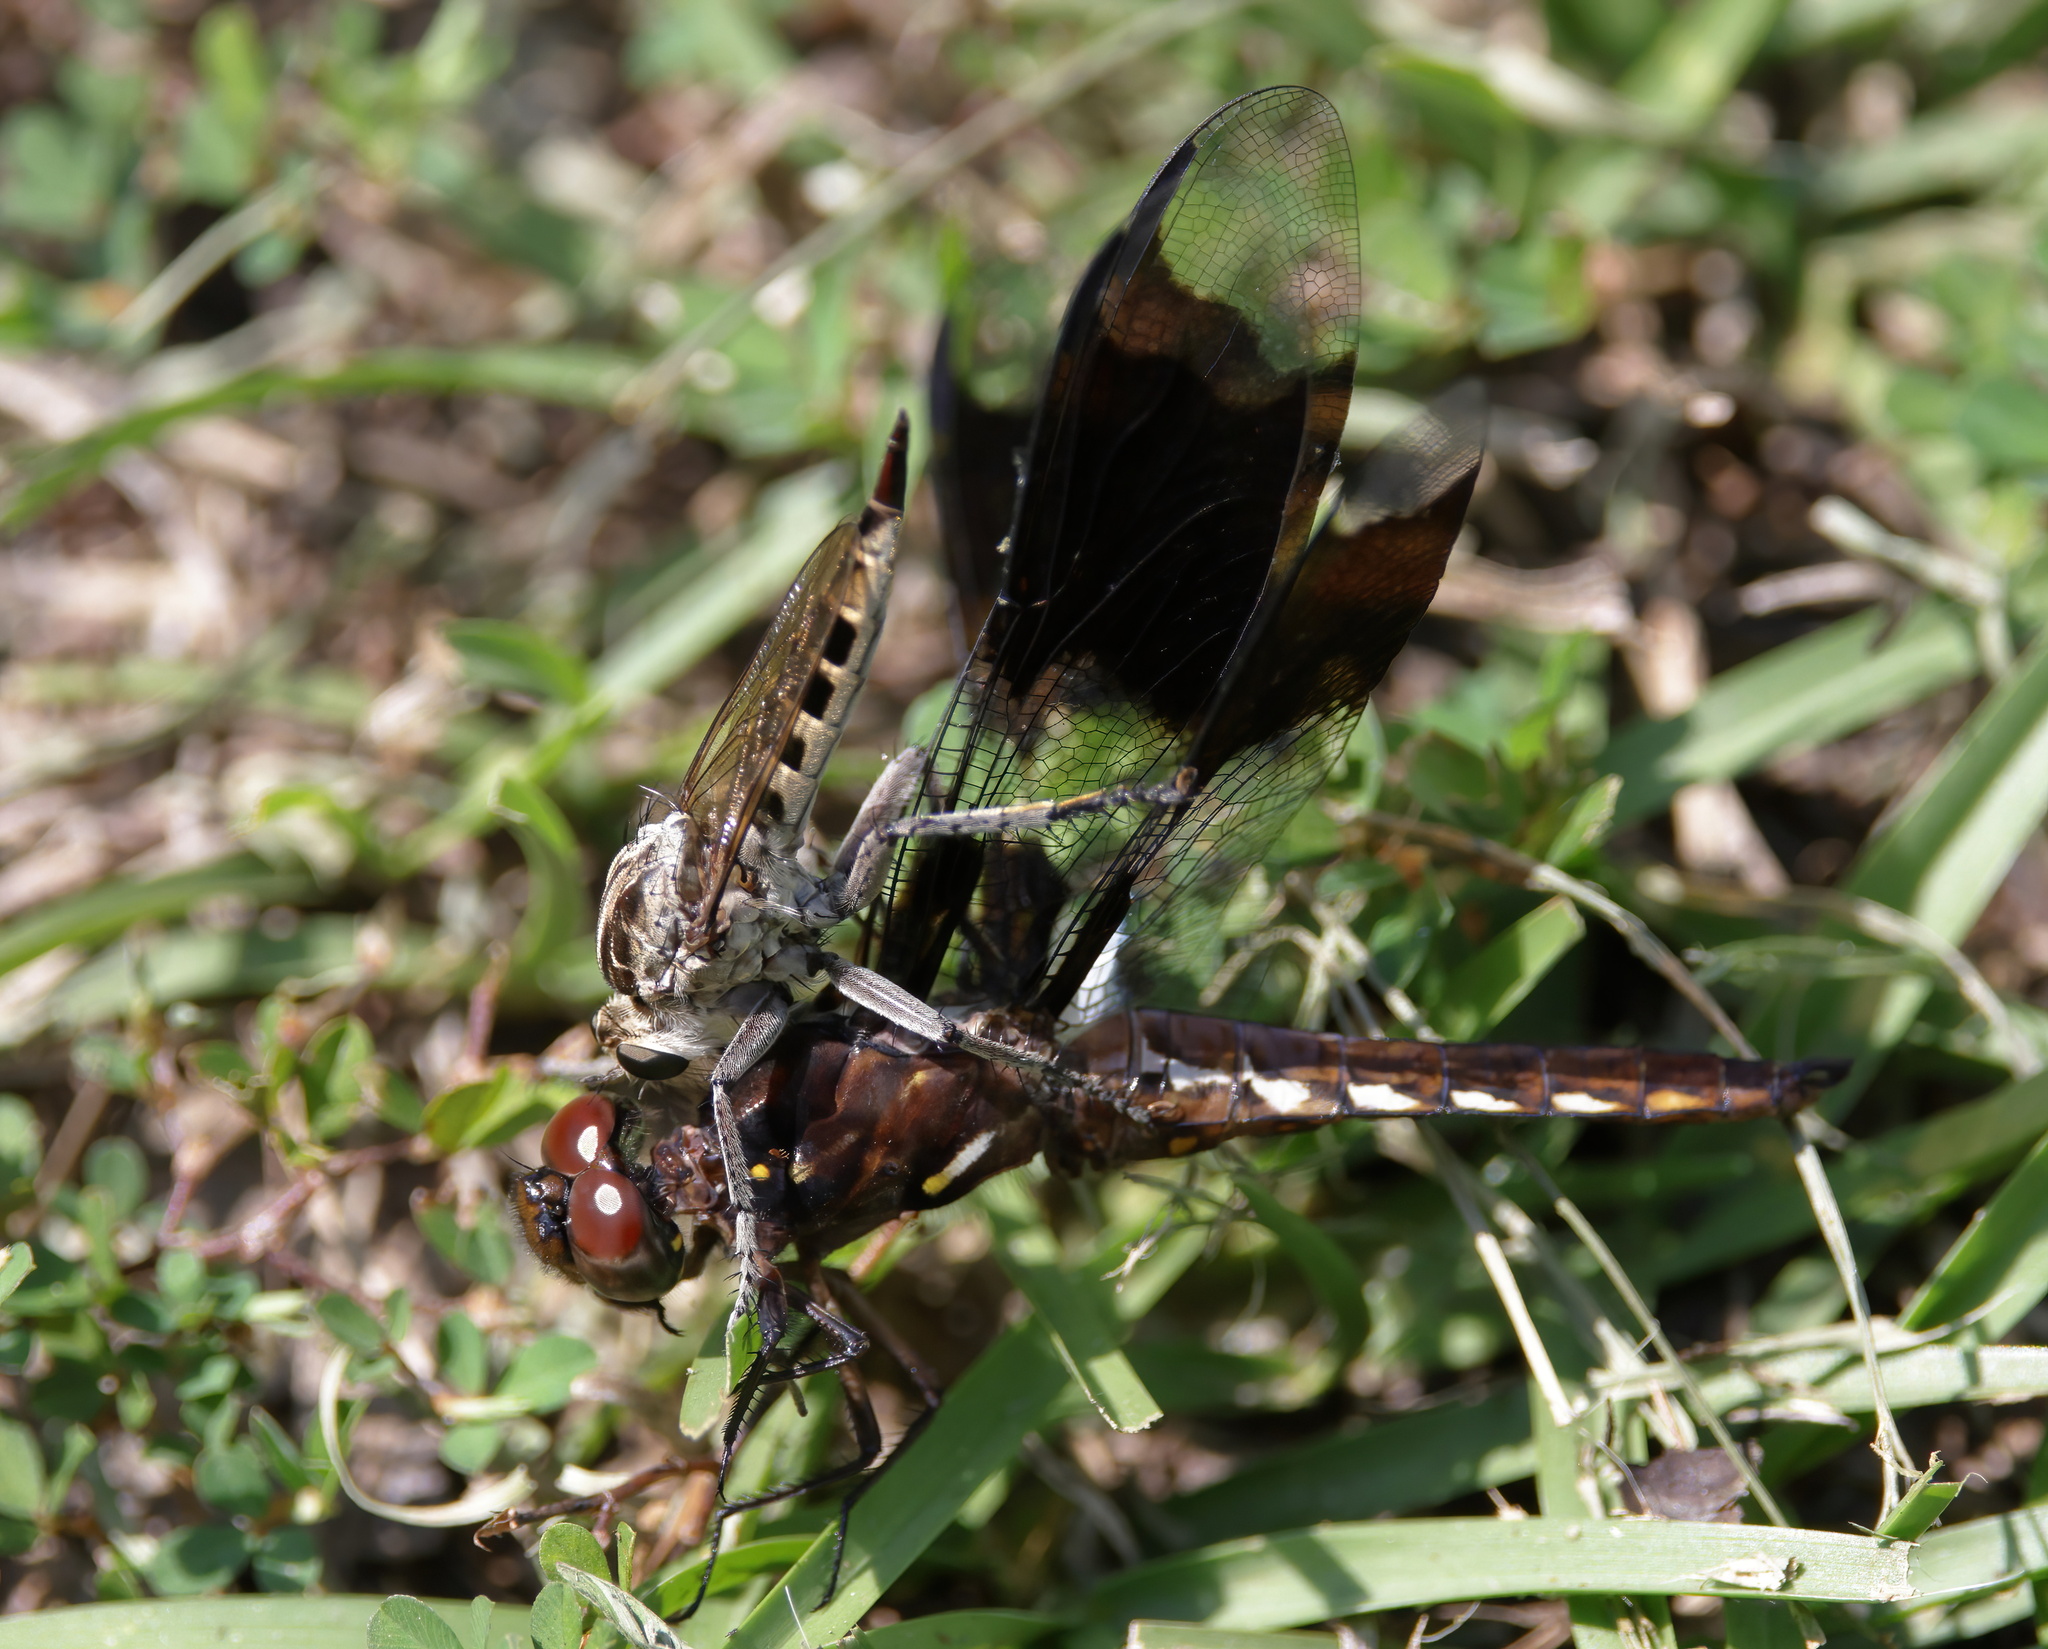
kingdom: Animalia
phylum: Arthropoda
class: Insecta
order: Odonata
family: Libellulidae
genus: Plathemis
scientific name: Plathemis lydia
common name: Common whitetail
